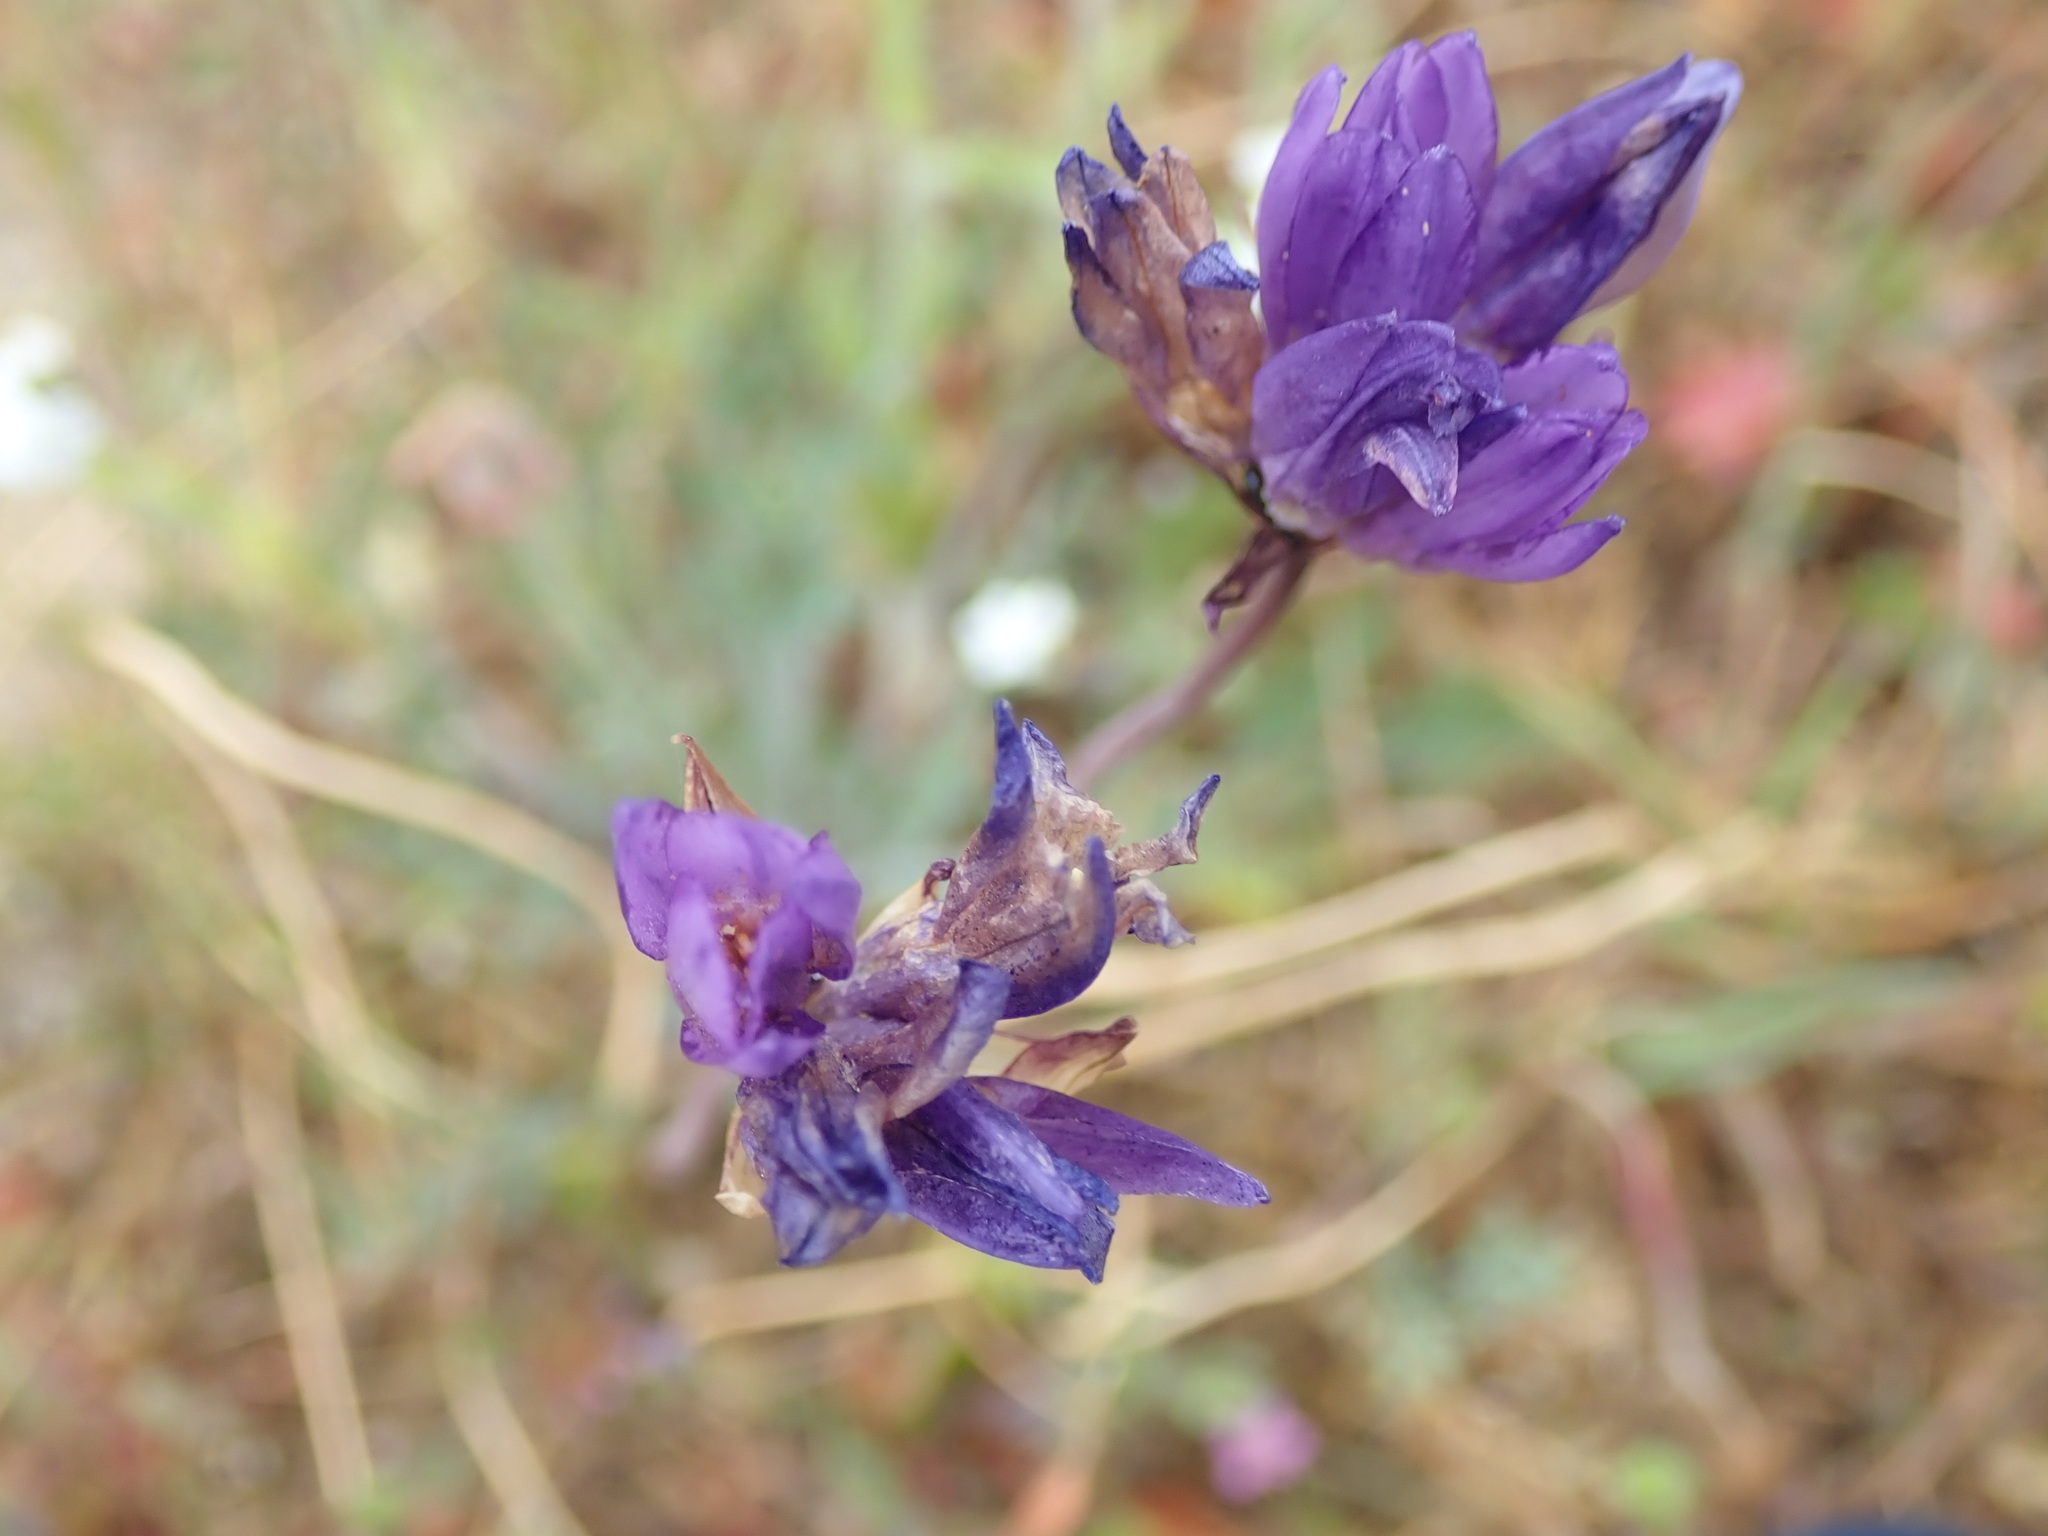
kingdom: Plantae
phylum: Tracheophyta
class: Liliopsida
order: Asparagales
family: Asparagaceae
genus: Dipterostemon
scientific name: Dipterostemon capitatus
